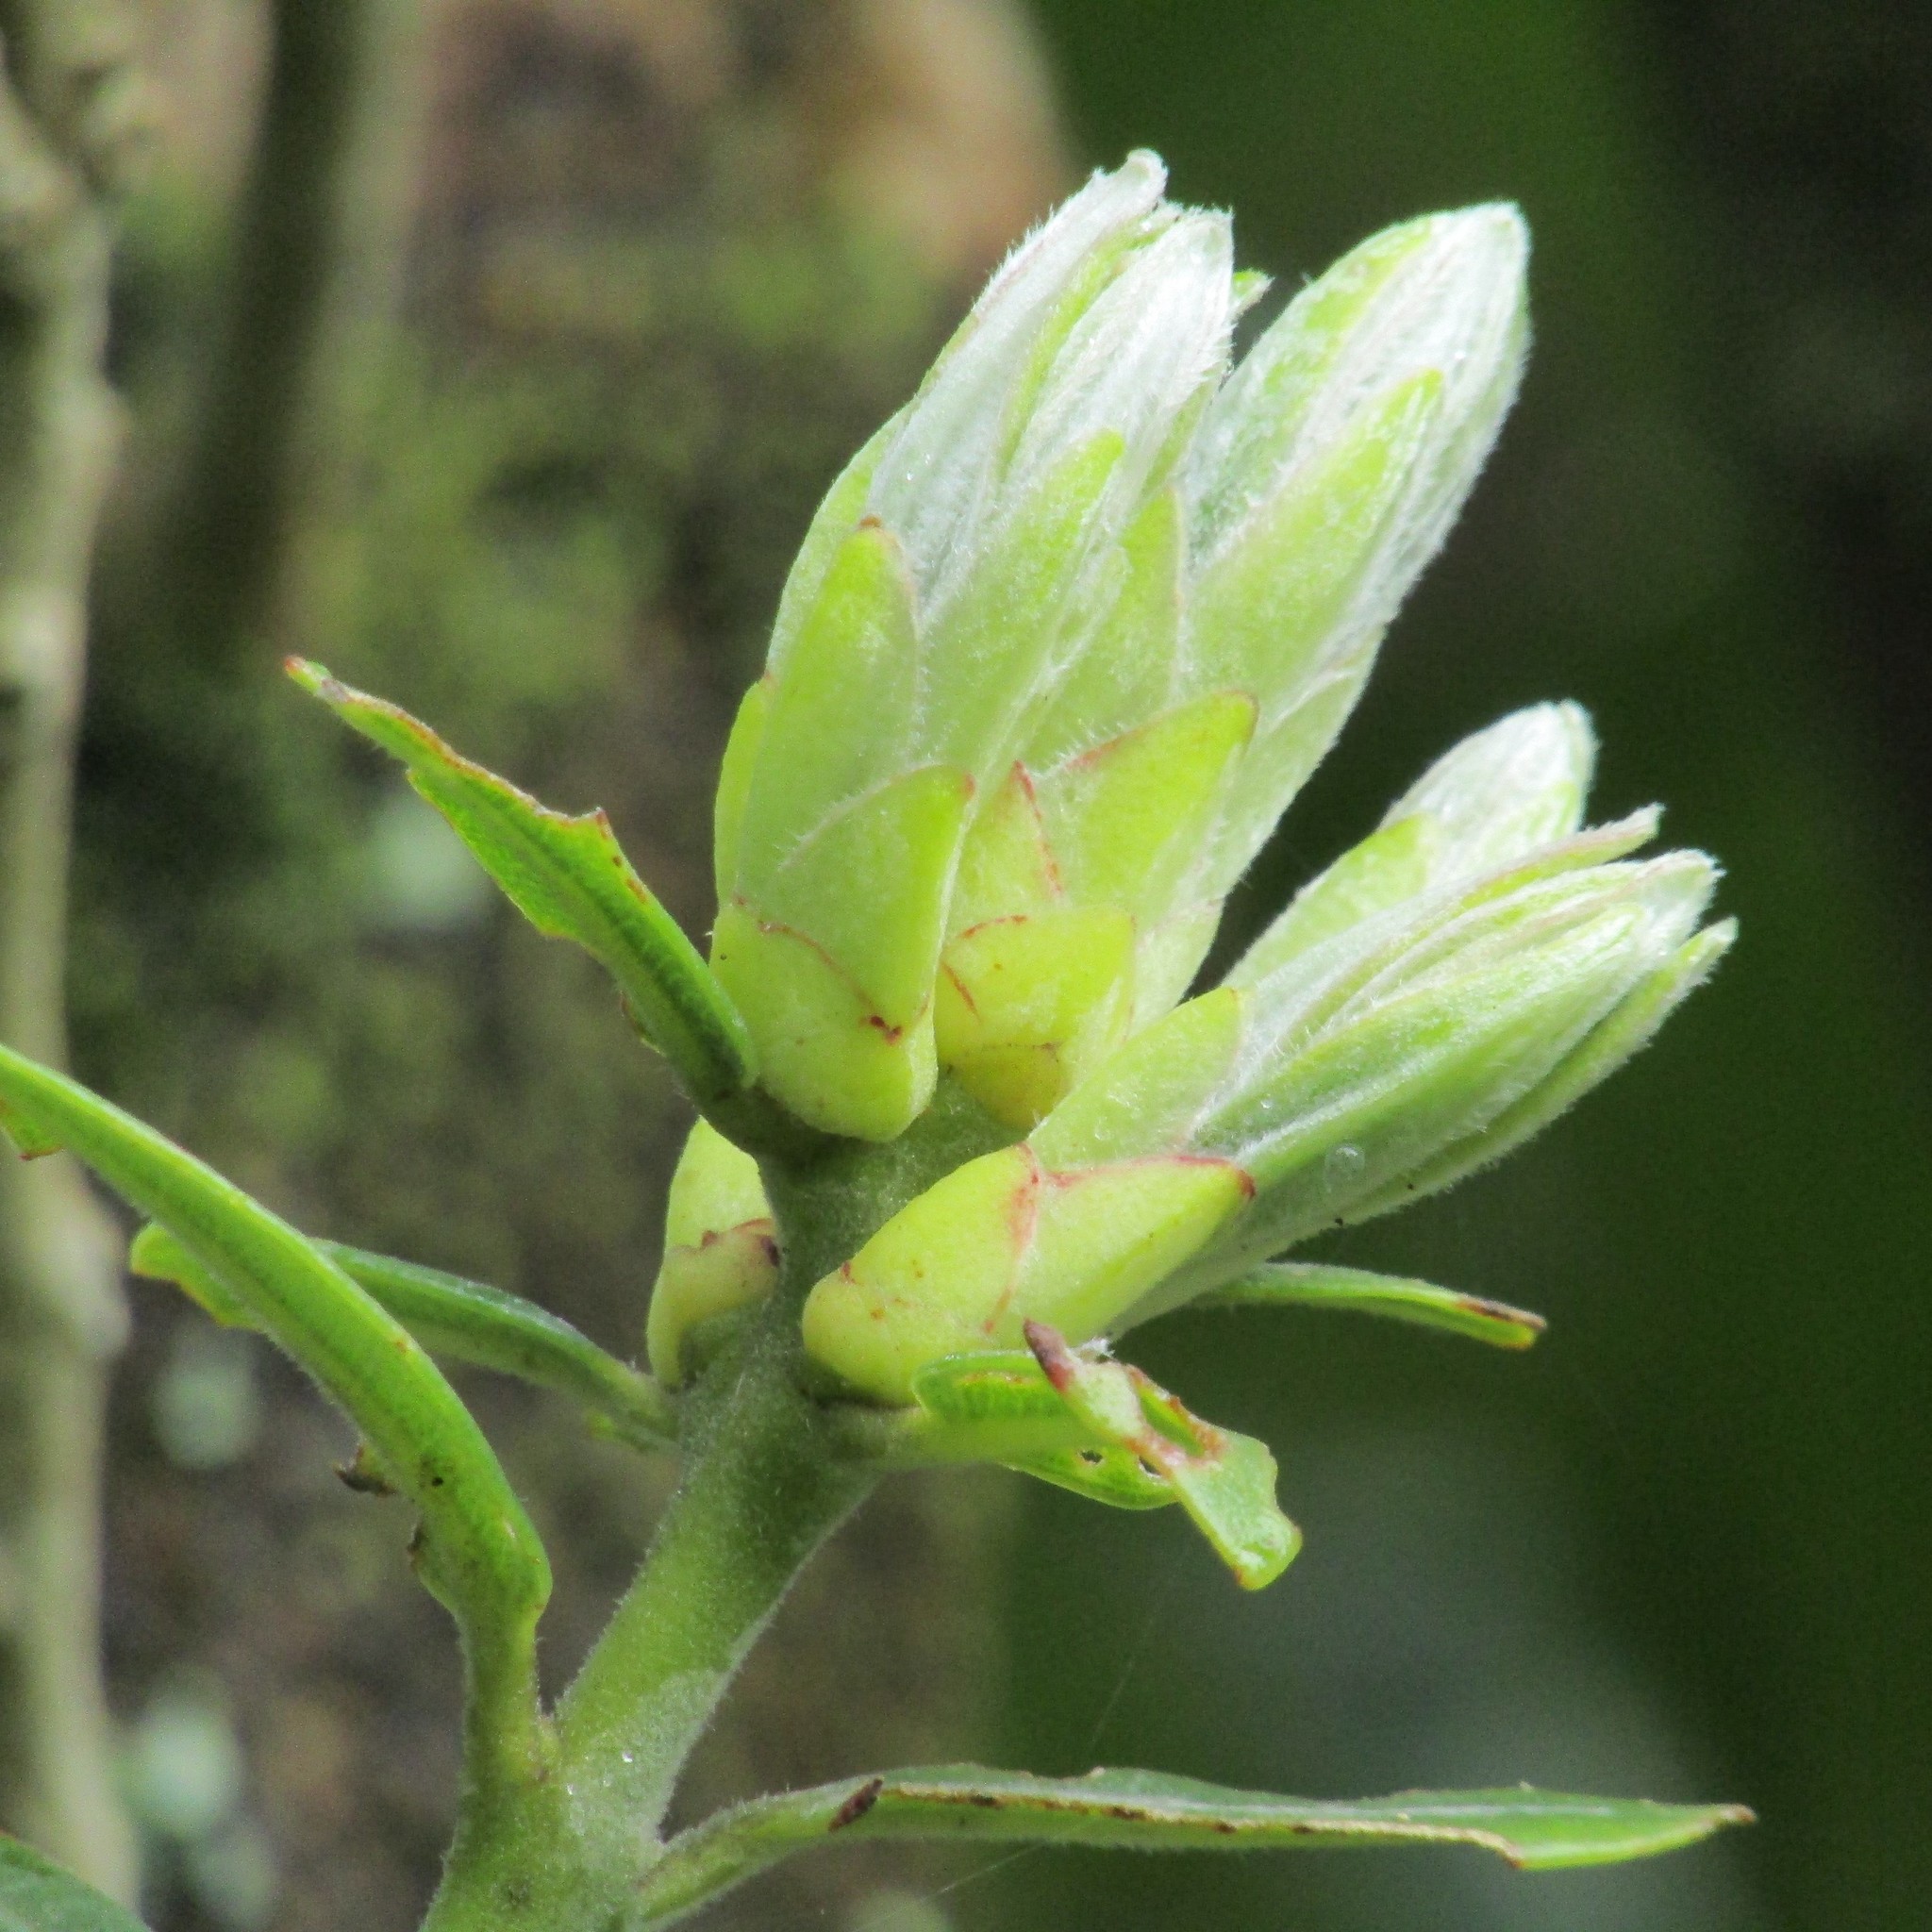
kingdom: Plantae
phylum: Tracheophyta
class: Magnoliopsida
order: Myrtales
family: Myrtaceae
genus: Metrosideros
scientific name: Metrosideros excelsa
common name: New zealand christmastree
